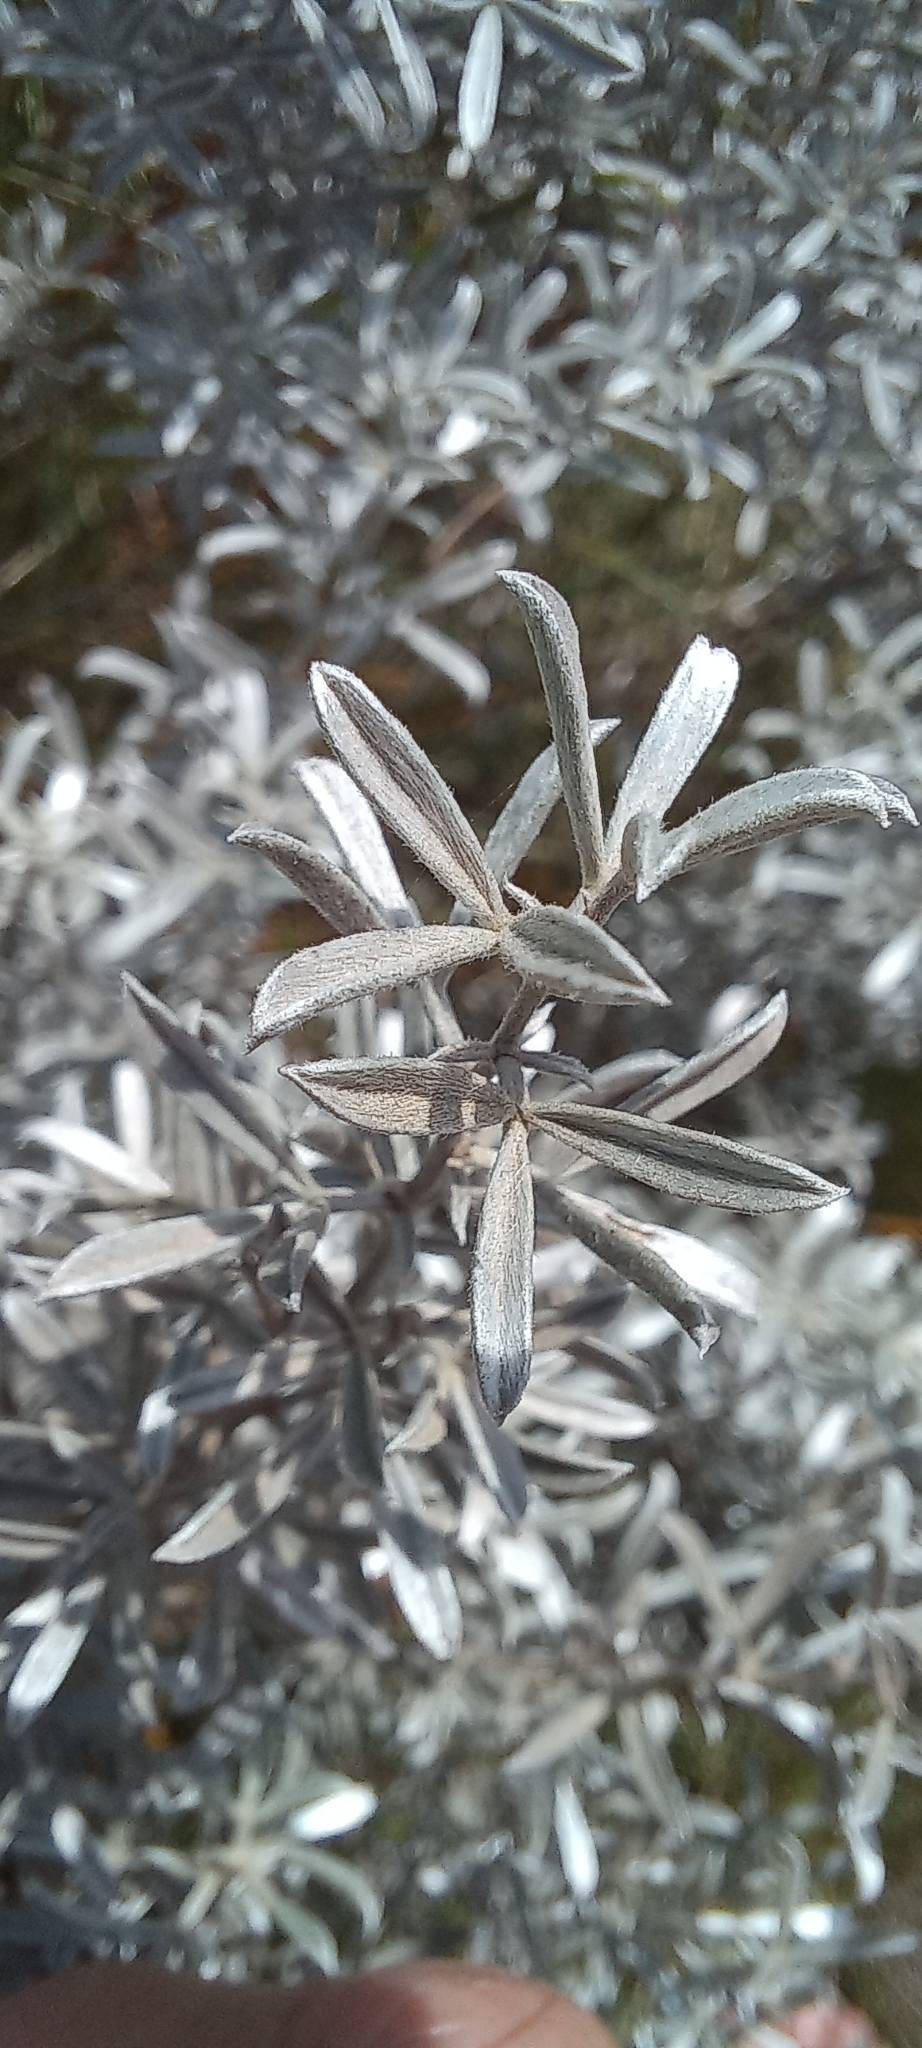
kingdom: Plantae
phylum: Tracheophyta
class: Magnoliopsida
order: Fabales
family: Fabaceae
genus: Lotononis
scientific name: Lotononis meyeri
